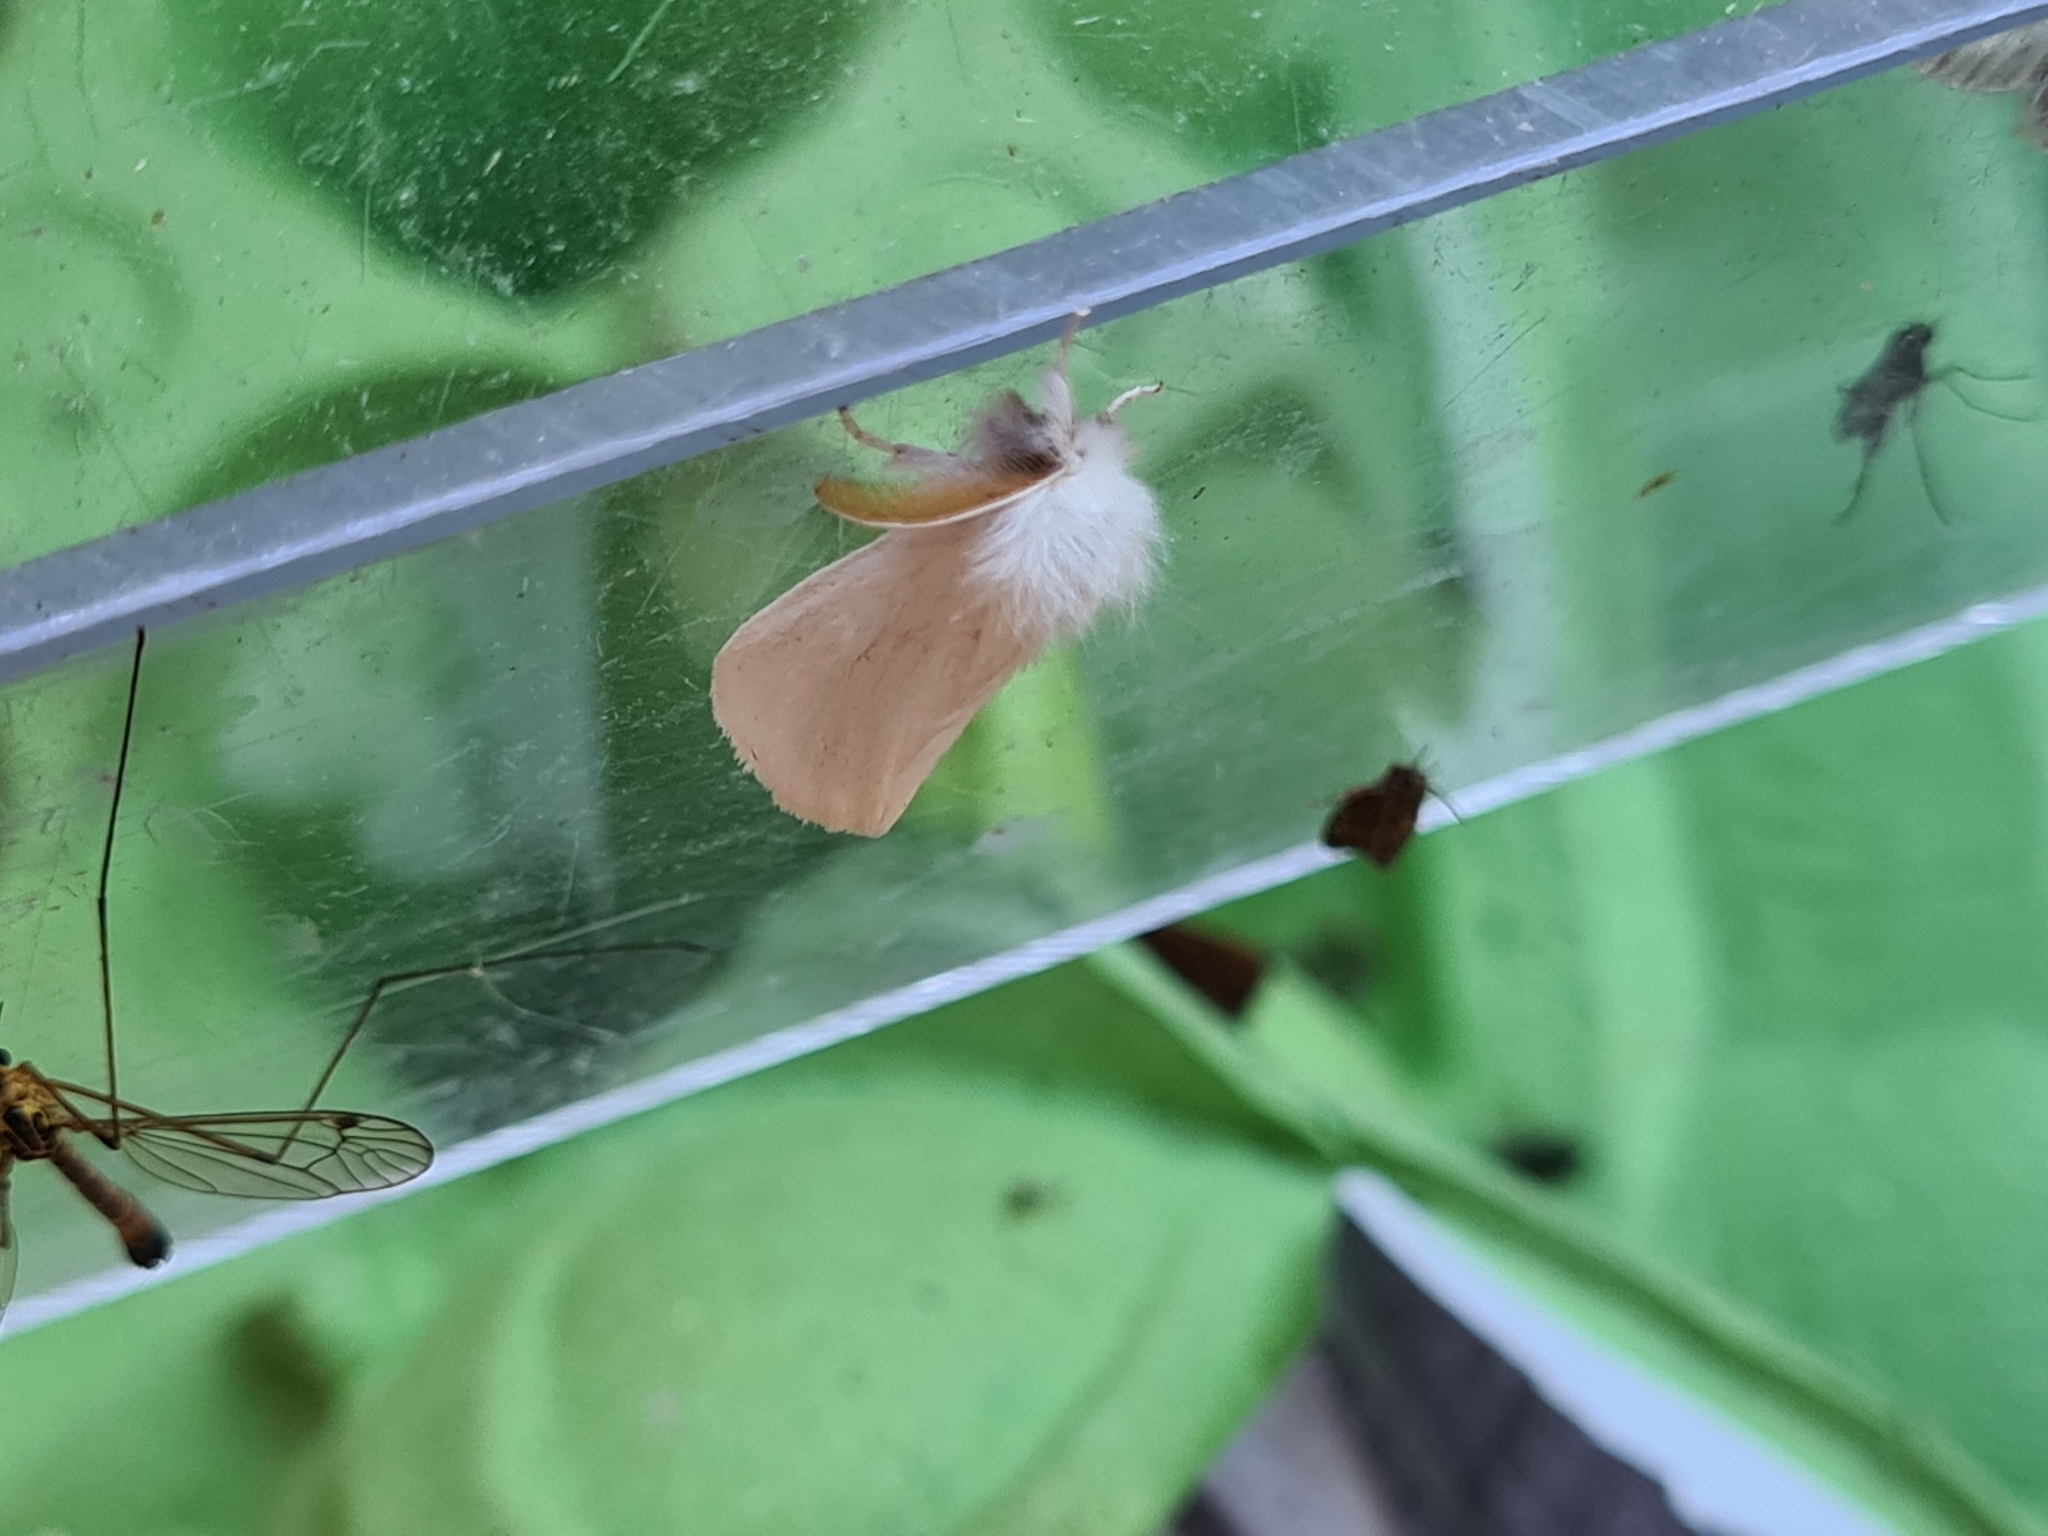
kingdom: Animalia
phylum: Arthropoda
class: Insecta
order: Lepidoptera
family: Erebidae
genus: Euproctis
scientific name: Euproctis chrysorrhoea
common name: Brown-tail
